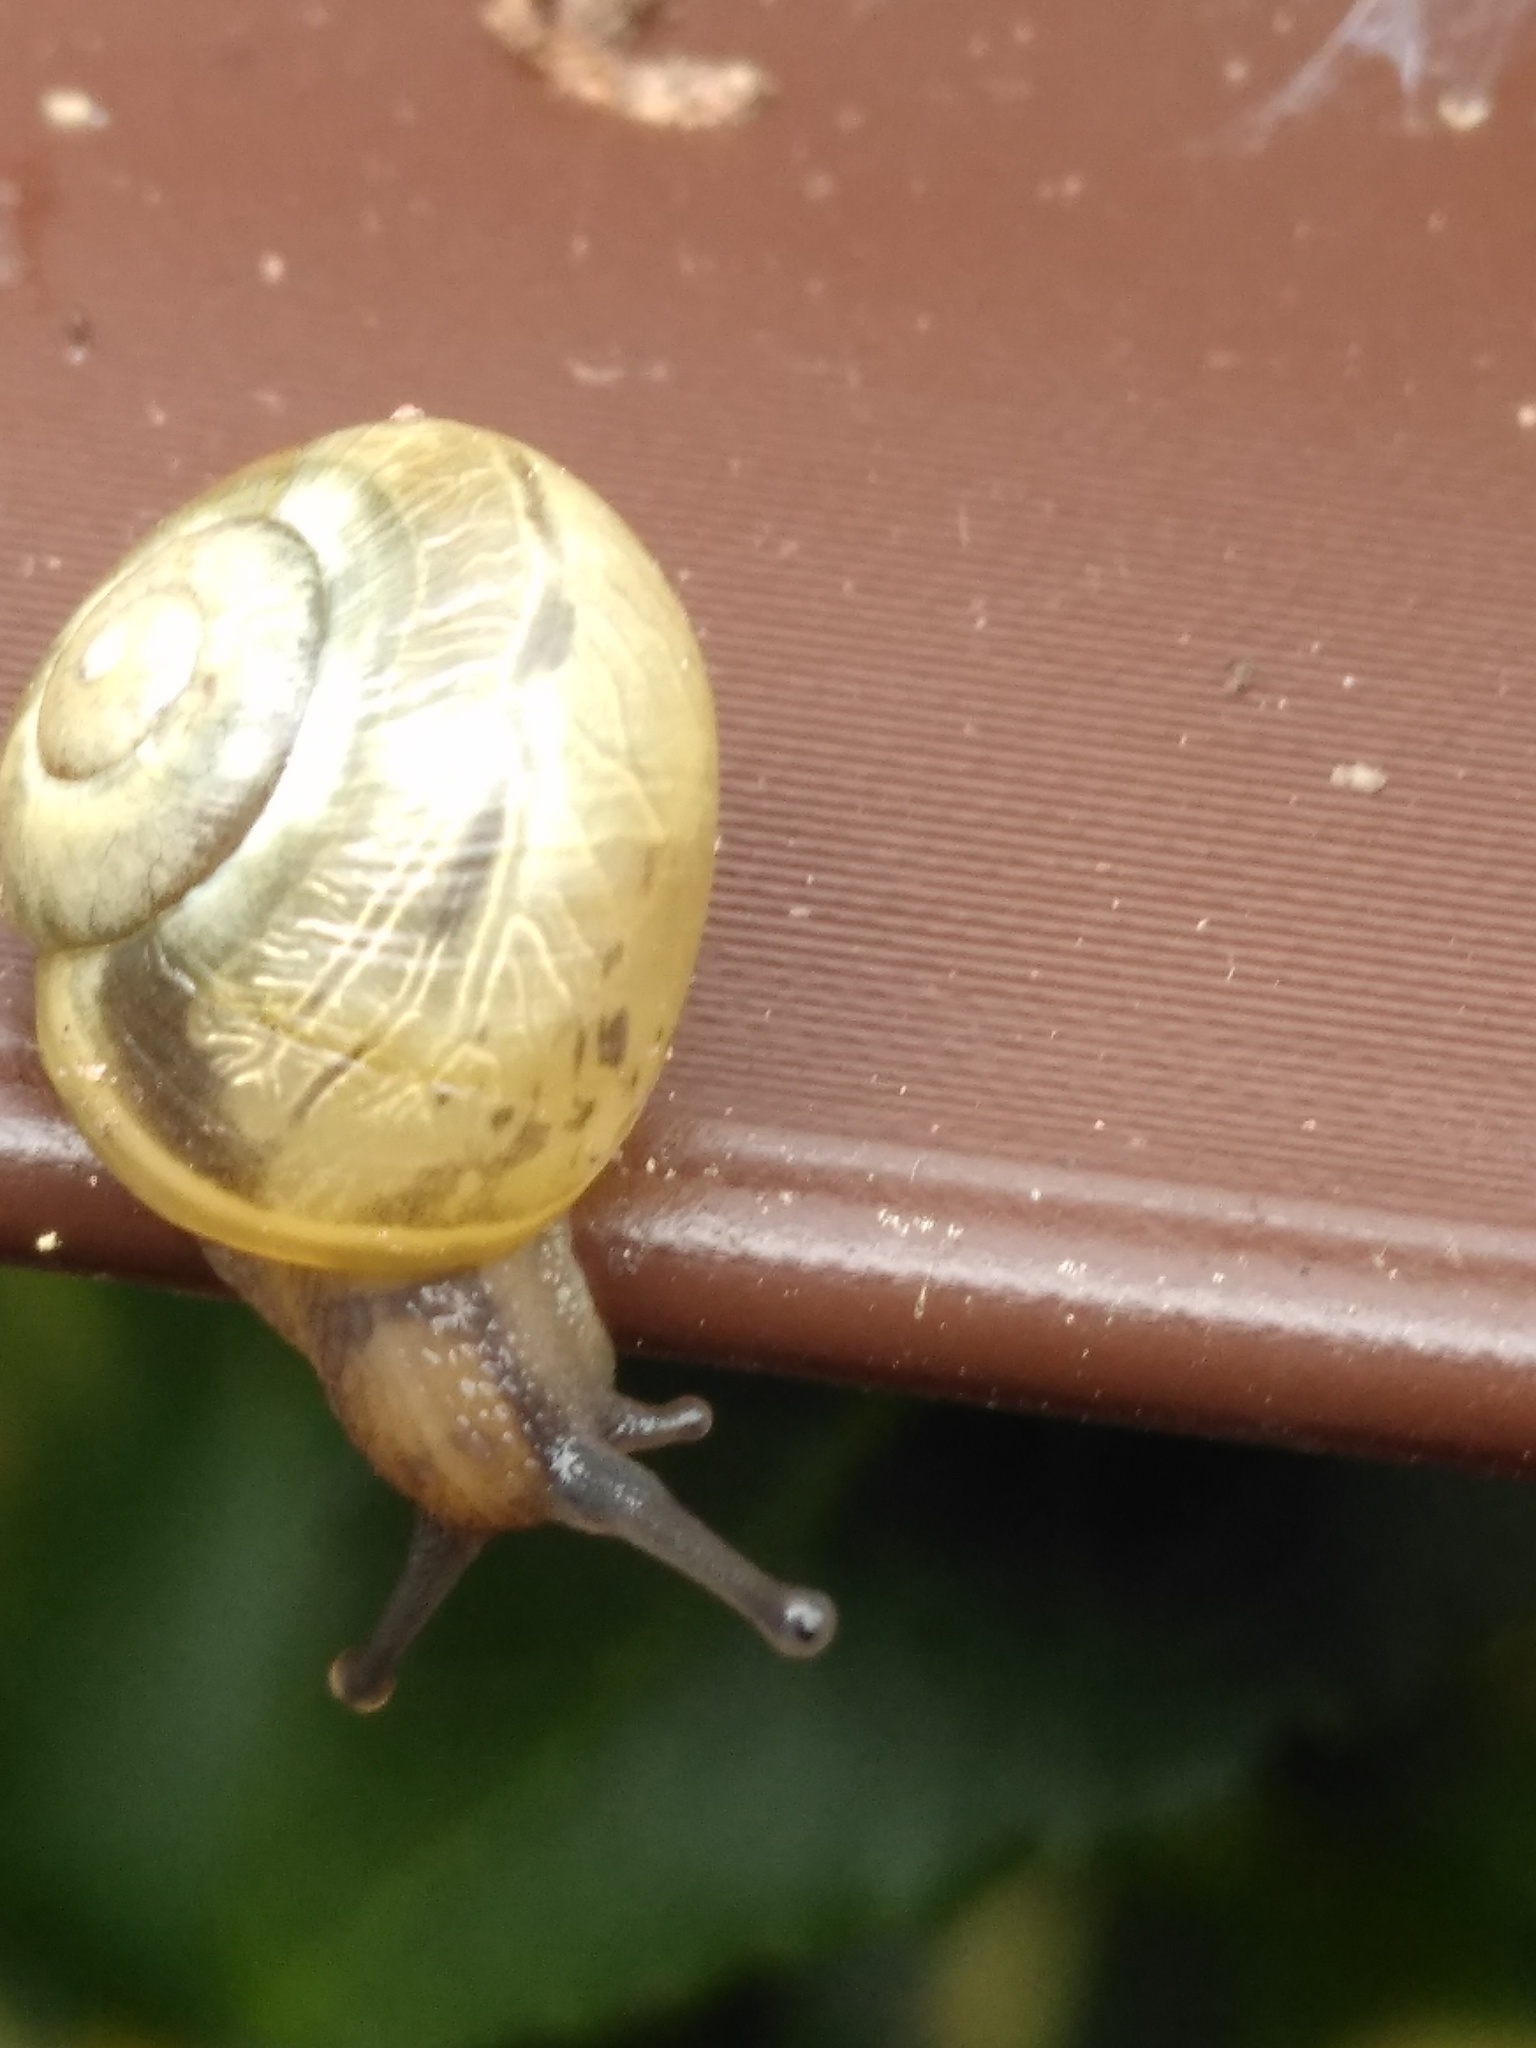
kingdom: Animalia
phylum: Mollusca
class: Gastropoda
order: Stylommatophora
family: Helicidae
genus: Cepaea
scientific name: Cepaea
